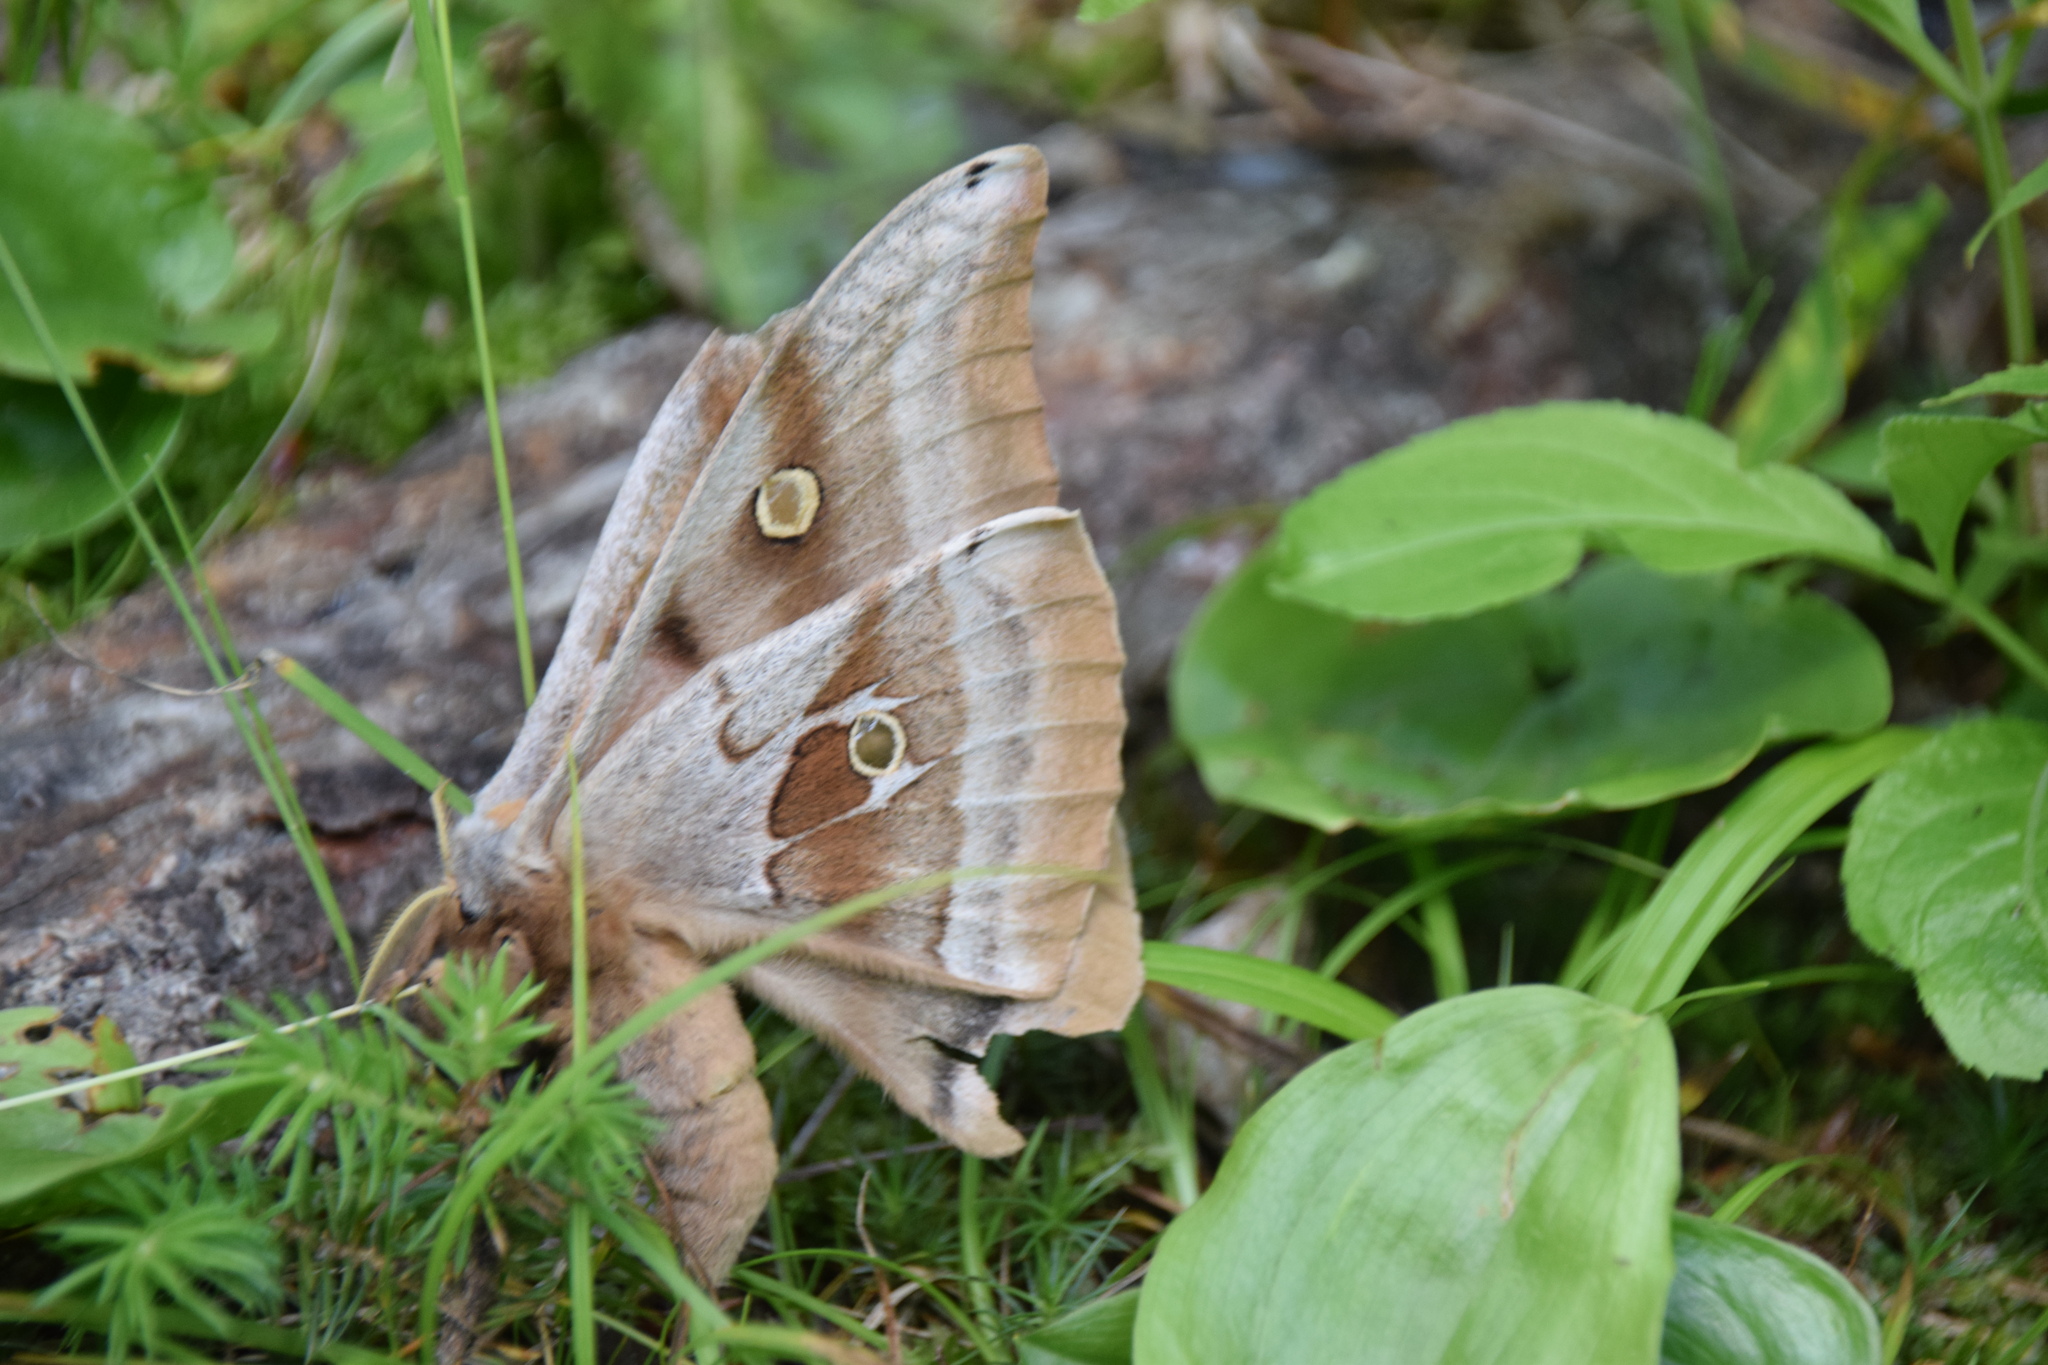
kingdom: Animalia
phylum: Arthropoda
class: Insecta
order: Lepidoptera
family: Saturniidae
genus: Antheraea
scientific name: Antheraea polyphemus
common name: Polyphemus moth
